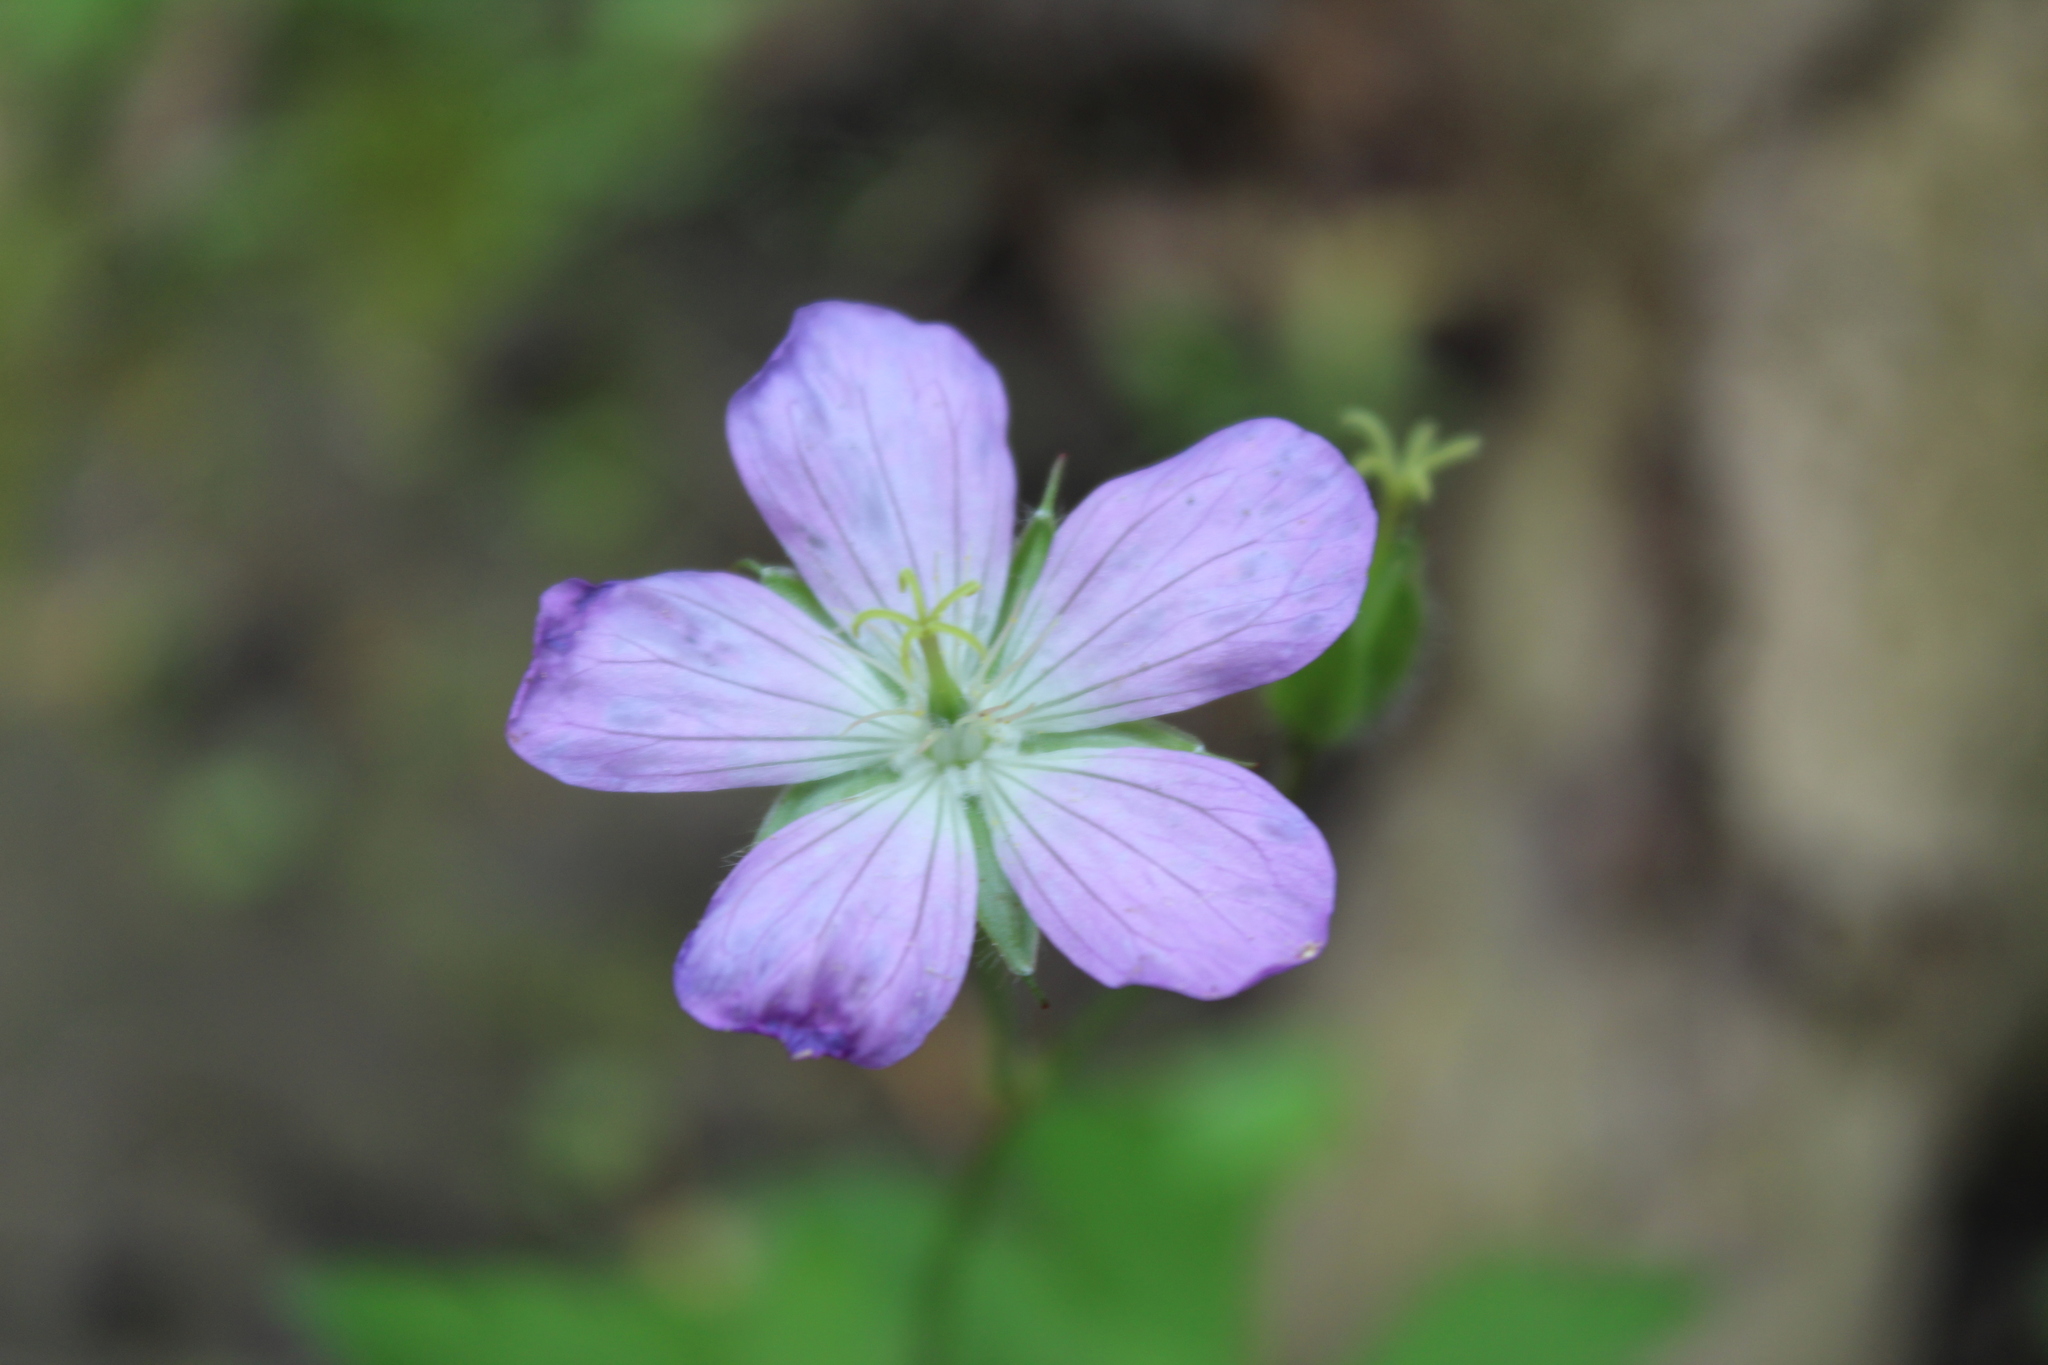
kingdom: Plantae
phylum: Tracheophyta
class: Magnoliopsida
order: Geraniales
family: Geraniaceae
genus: Geranium
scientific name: Geranium maculatum
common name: Spotted geranium
